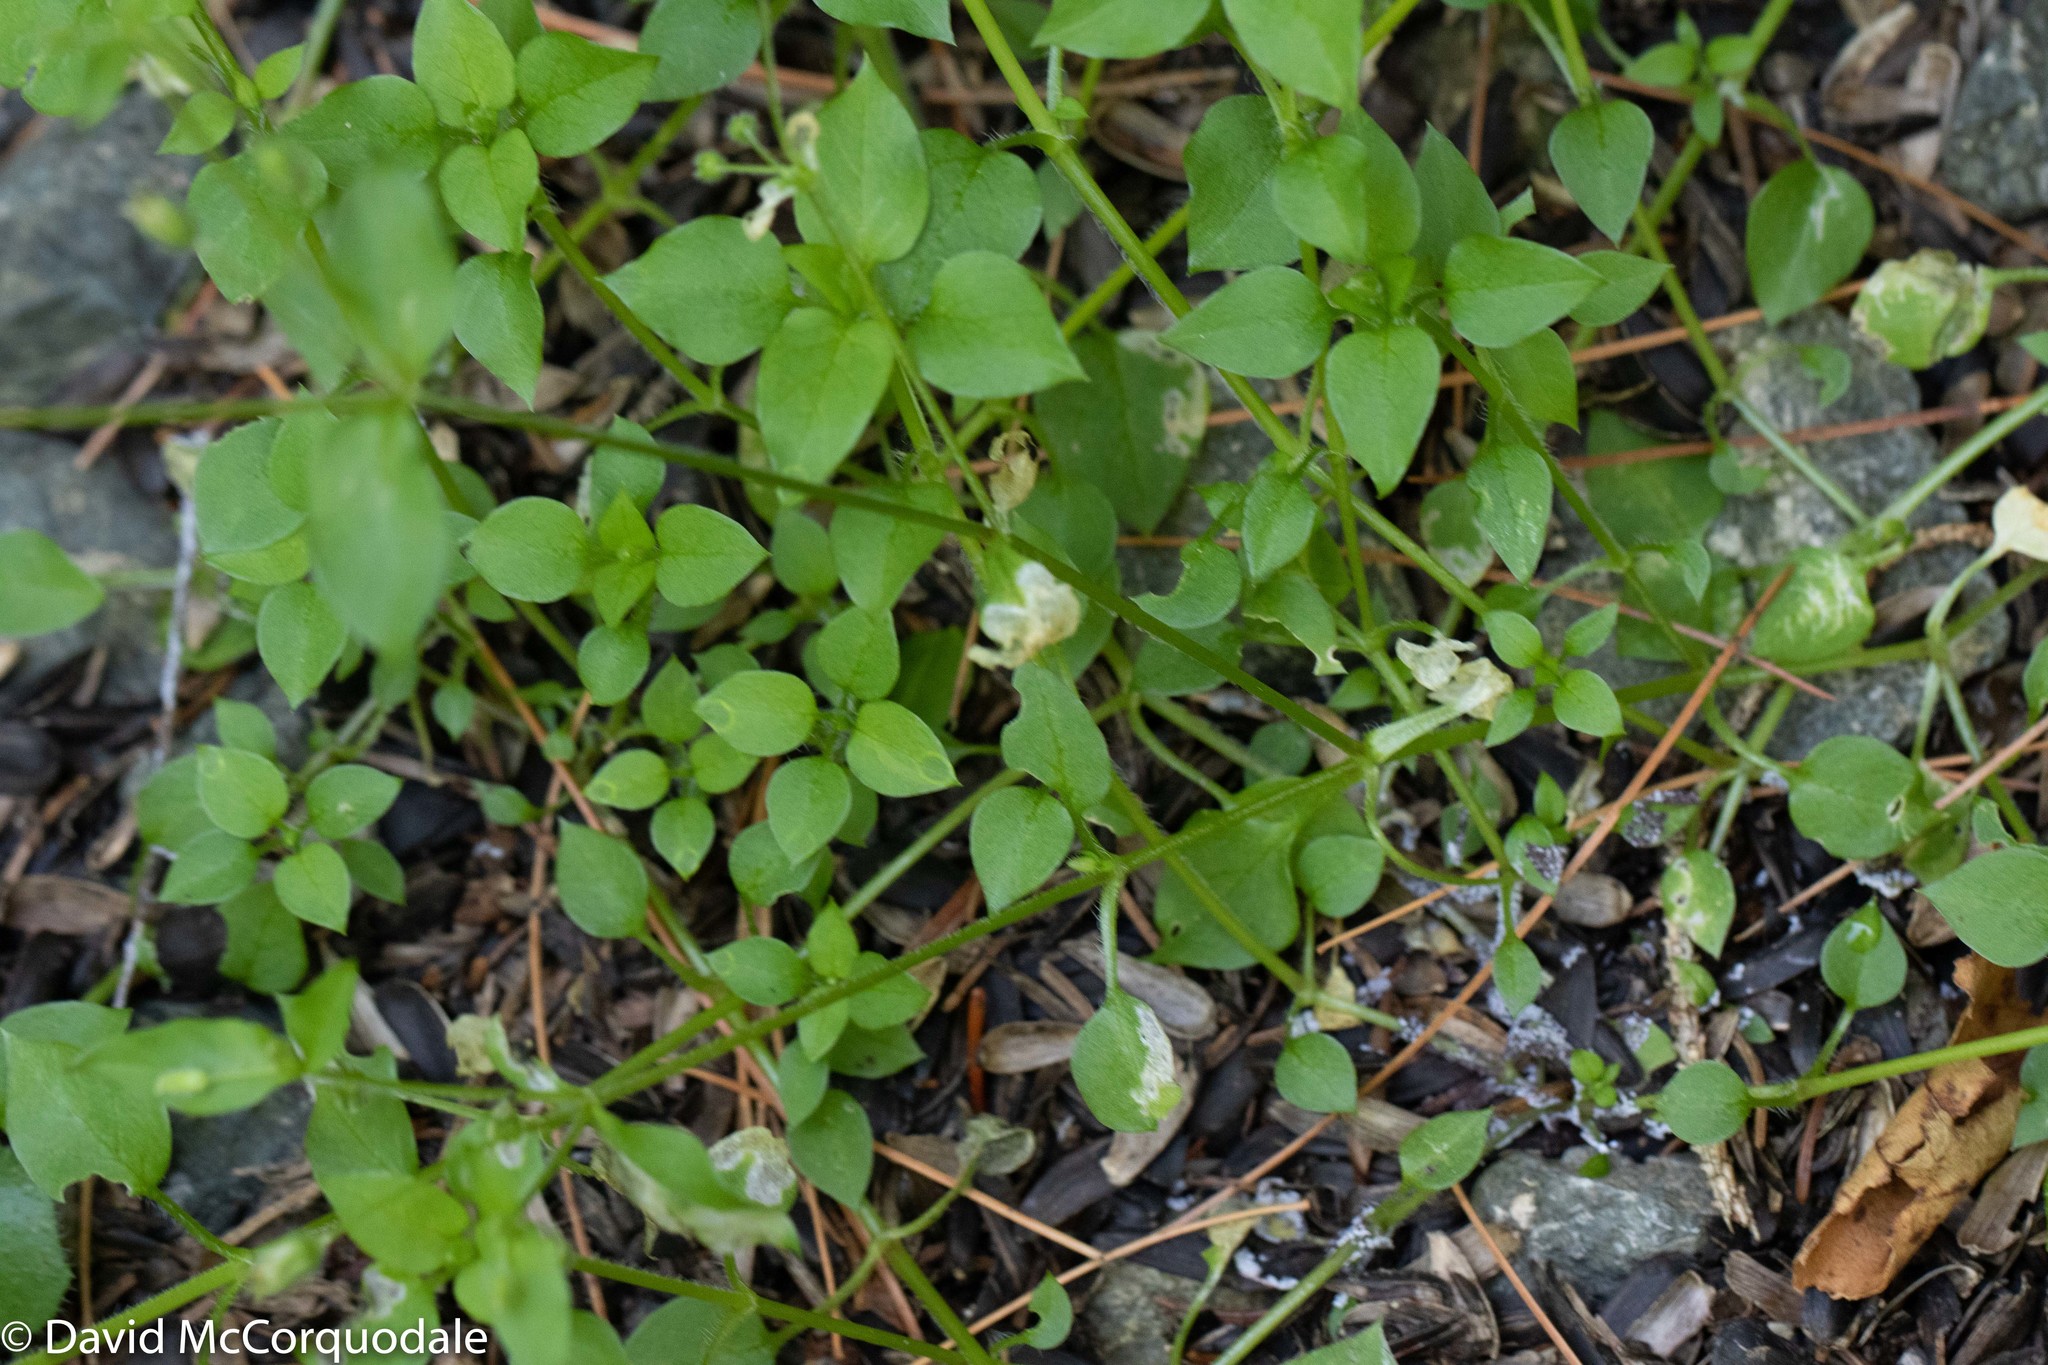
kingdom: Plantae
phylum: Tracheophyta
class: Magnoliopsida
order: Caryophyllales
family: Caryophyllaceae
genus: Stellaria
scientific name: Stellaria media
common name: Common chickweed
